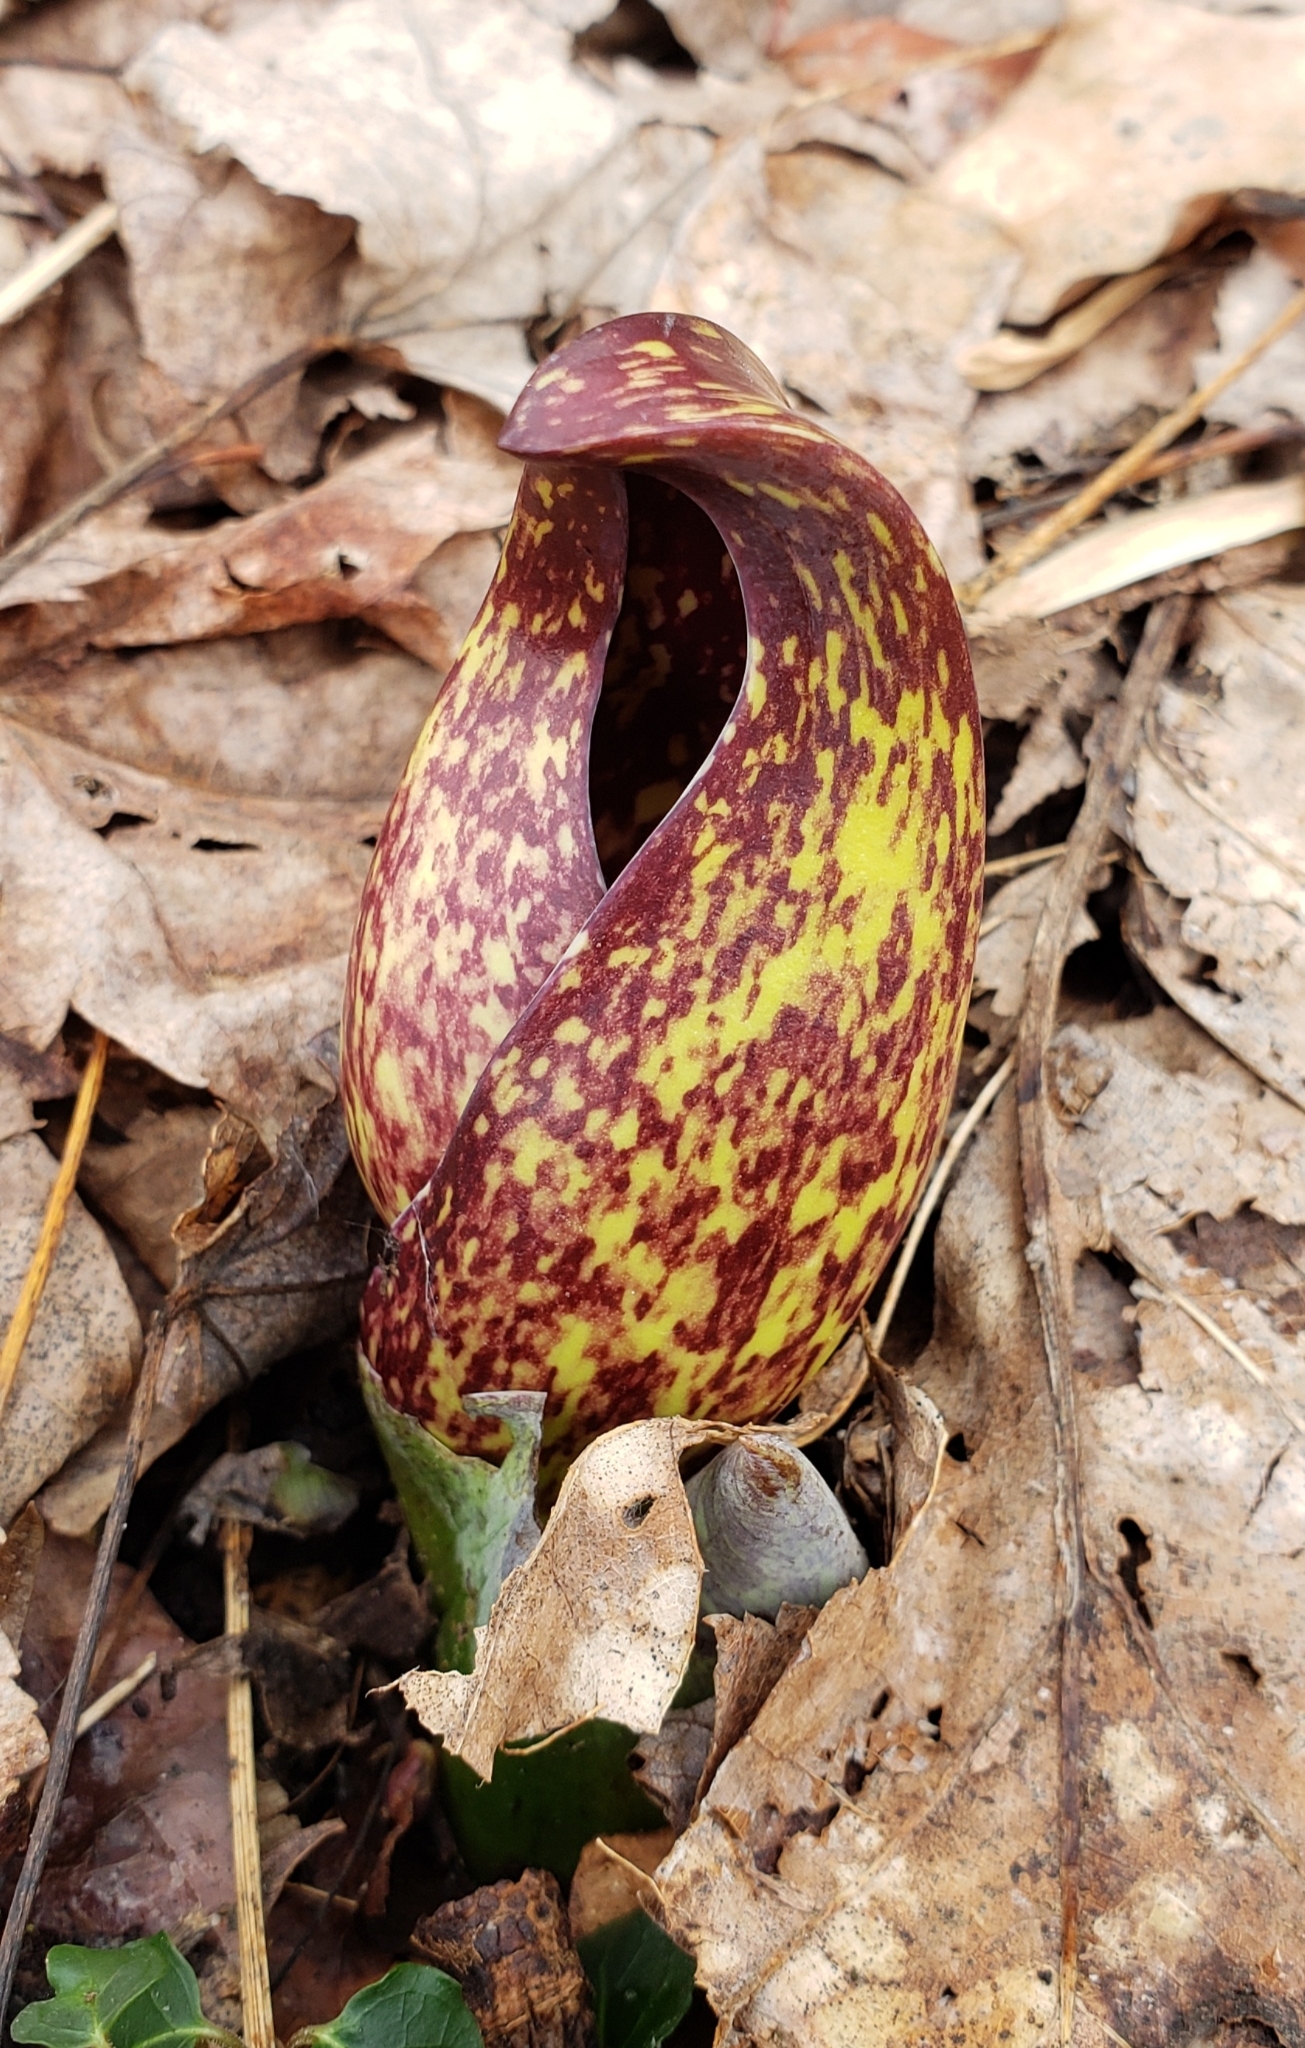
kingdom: Plantae
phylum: Tracheophyta
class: Liliopsida
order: Alismatales
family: Araceae
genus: Symplocarpus
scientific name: Symplocarpus foetidus
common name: Eastern skunk cabbage
